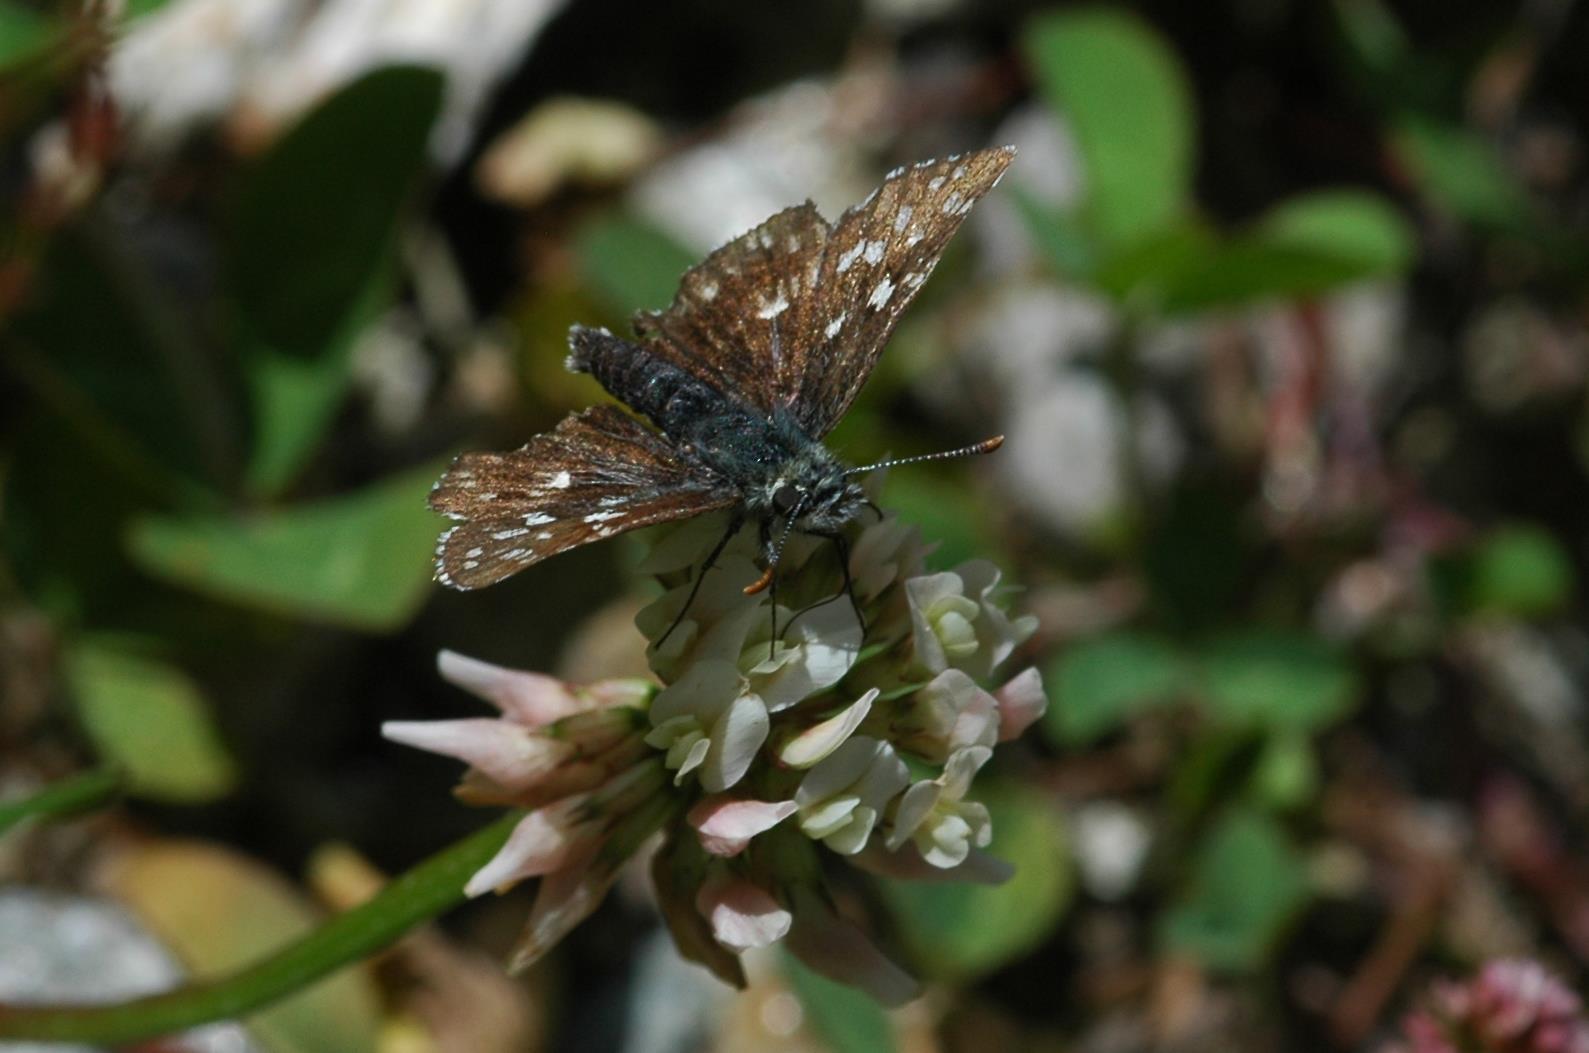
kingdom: Animalia
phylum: Arthropoda
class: Insecta
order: Lepidoptera
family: Hesperiidae
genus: Pyrgus
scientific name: Pyrgus malvoides
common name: Southern grizzled skipper
